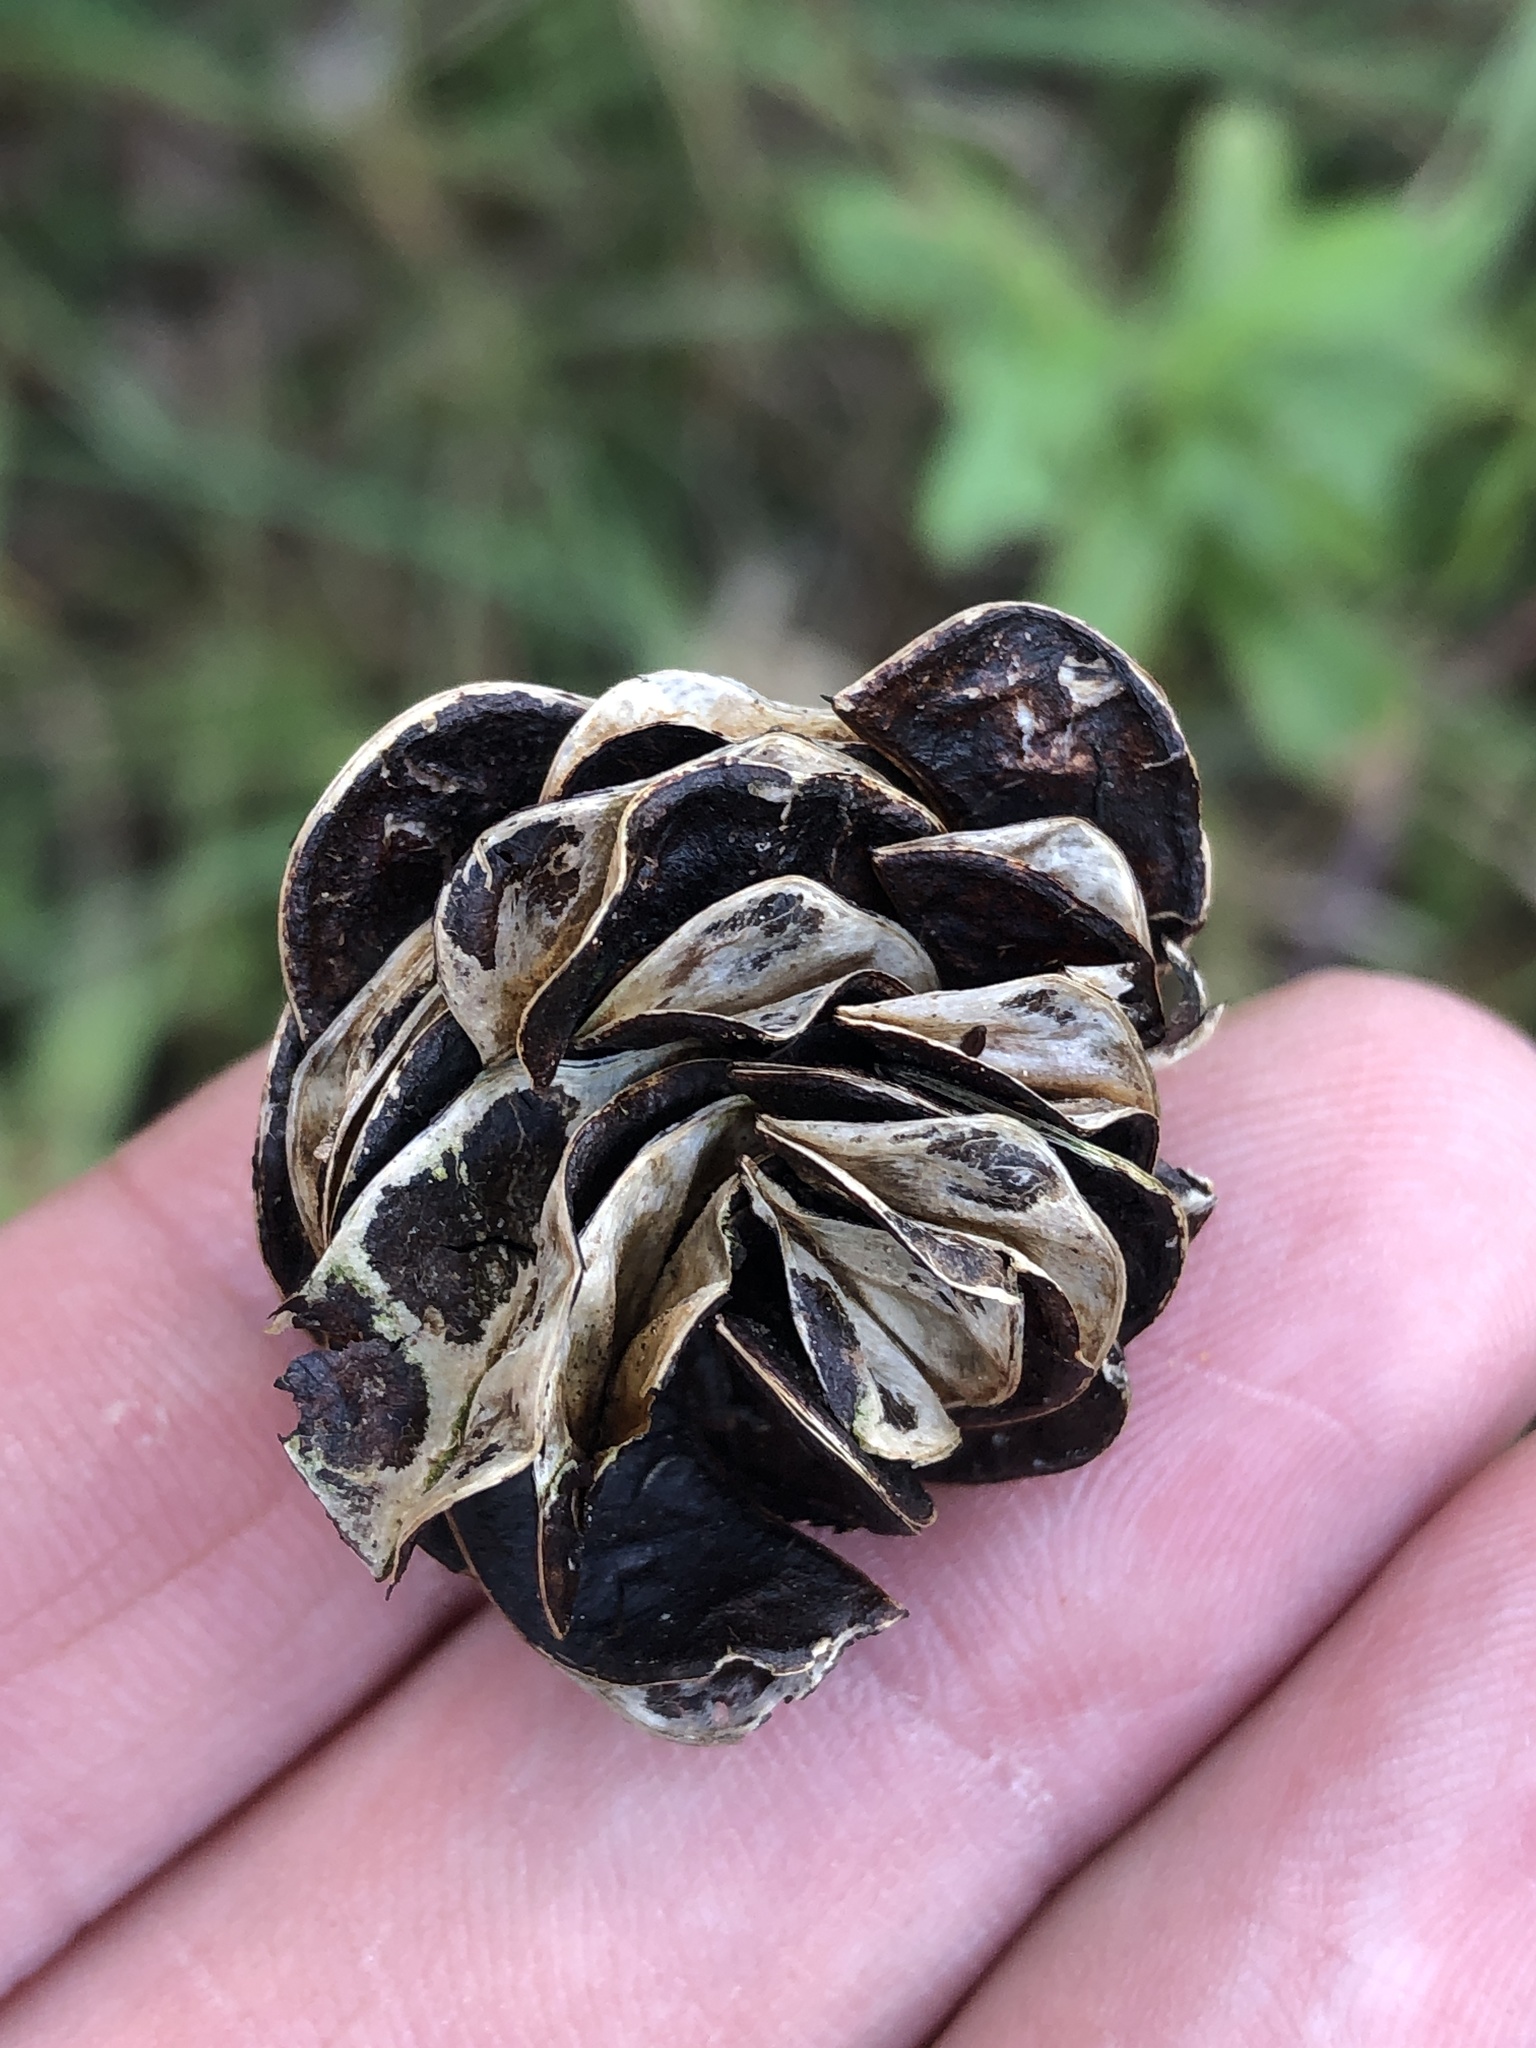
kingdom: Plantae
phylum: Tracheophyta
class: Magnoliopsida
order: Fabales
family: Fabaceae
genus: Desmanthus
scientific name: Desmanthus illinoensis
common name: Illinois bundle-flower
